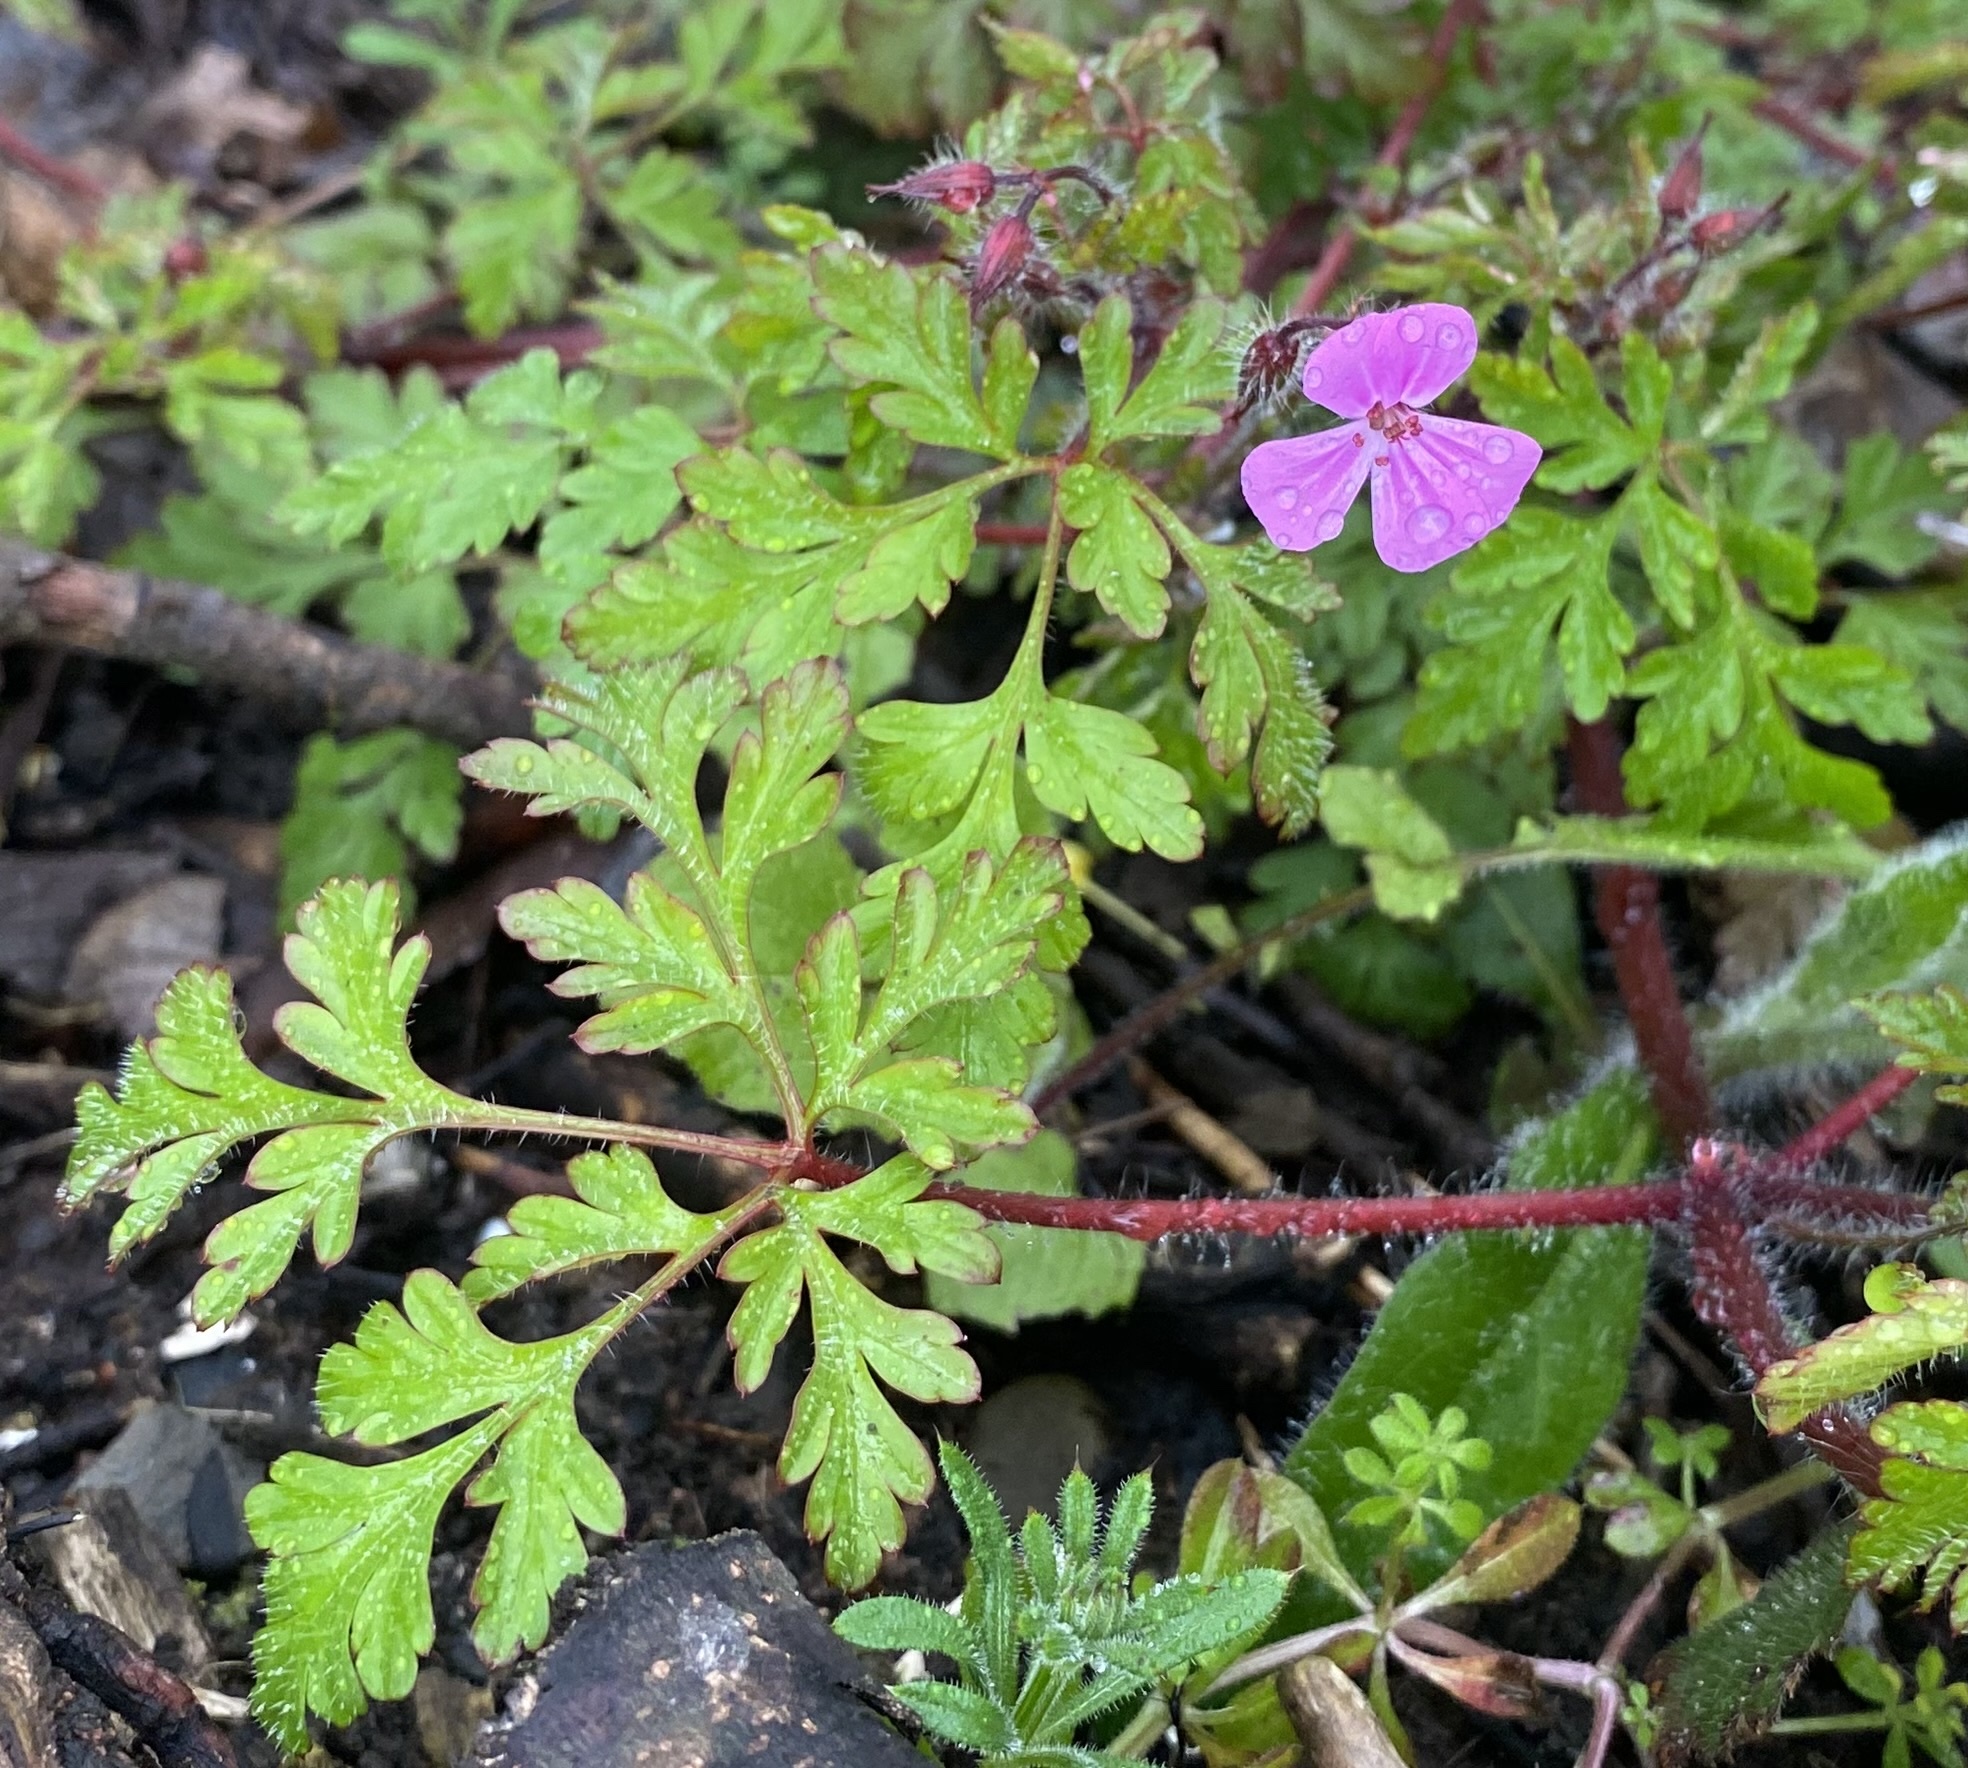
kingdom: Plantae
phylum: Tracheophyta
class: Magnoliopsida
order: Geraniales
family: Geraniaceae
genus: Geranium
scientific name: Geranium robertianum
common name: Herb-robert
